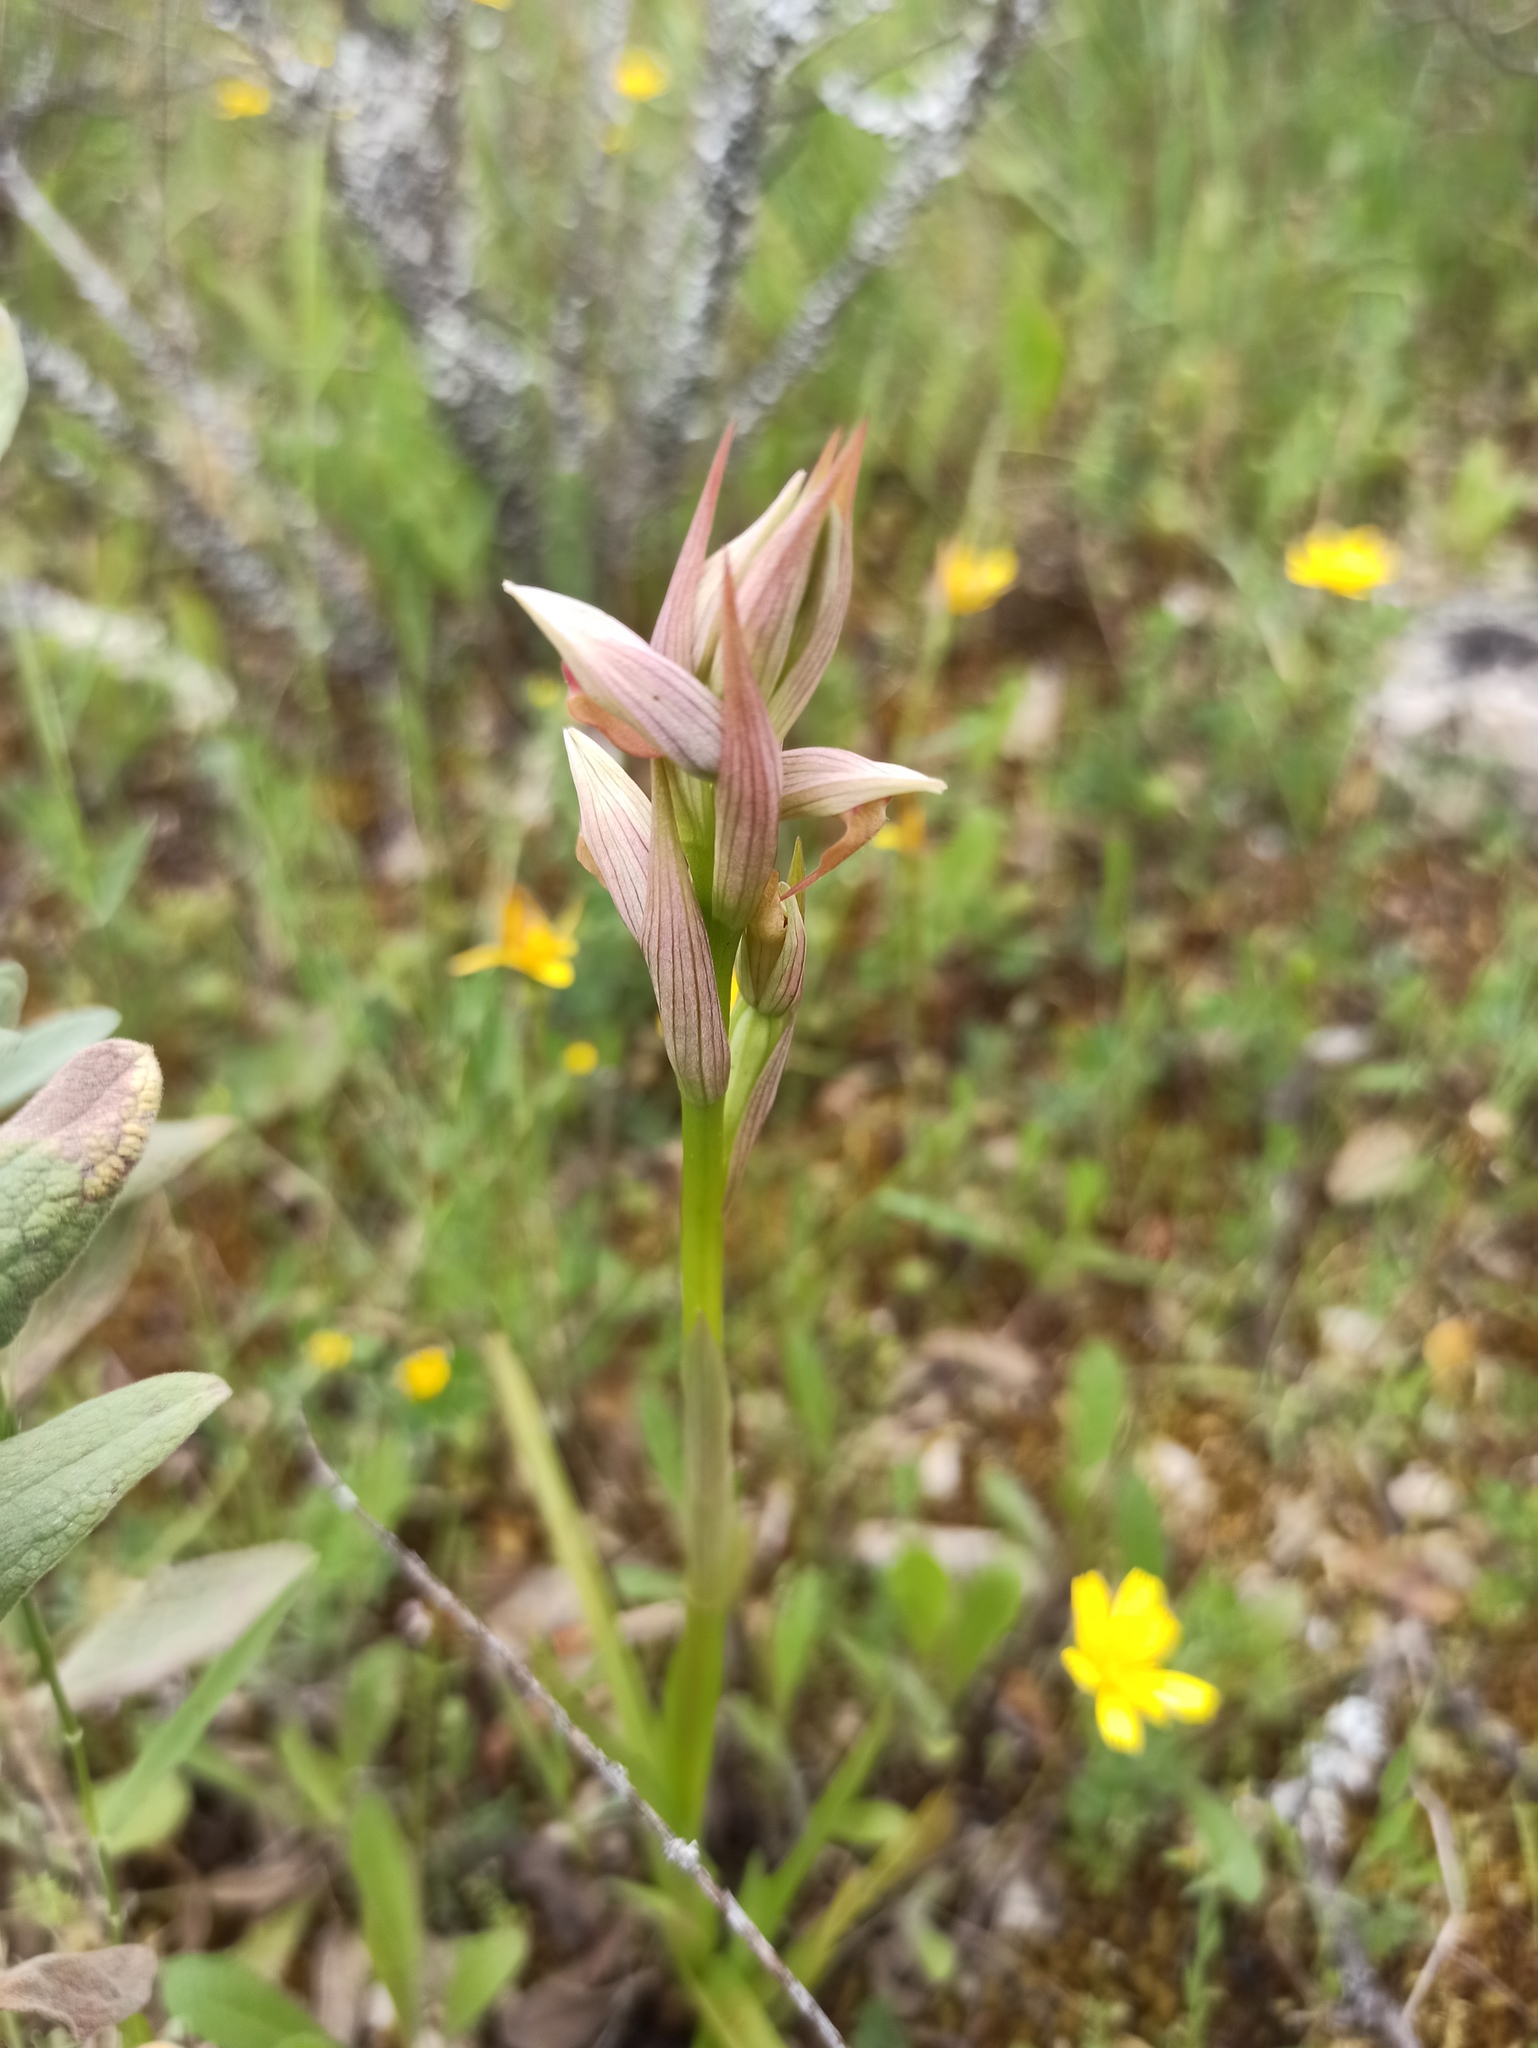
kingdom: Plantae
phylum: Tracheophyta
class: Liliopsida
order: Asparagales
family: Orchidaceae
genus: Serapias
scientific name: Serapias parviflora
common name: Small-flowered tongue-orchid
